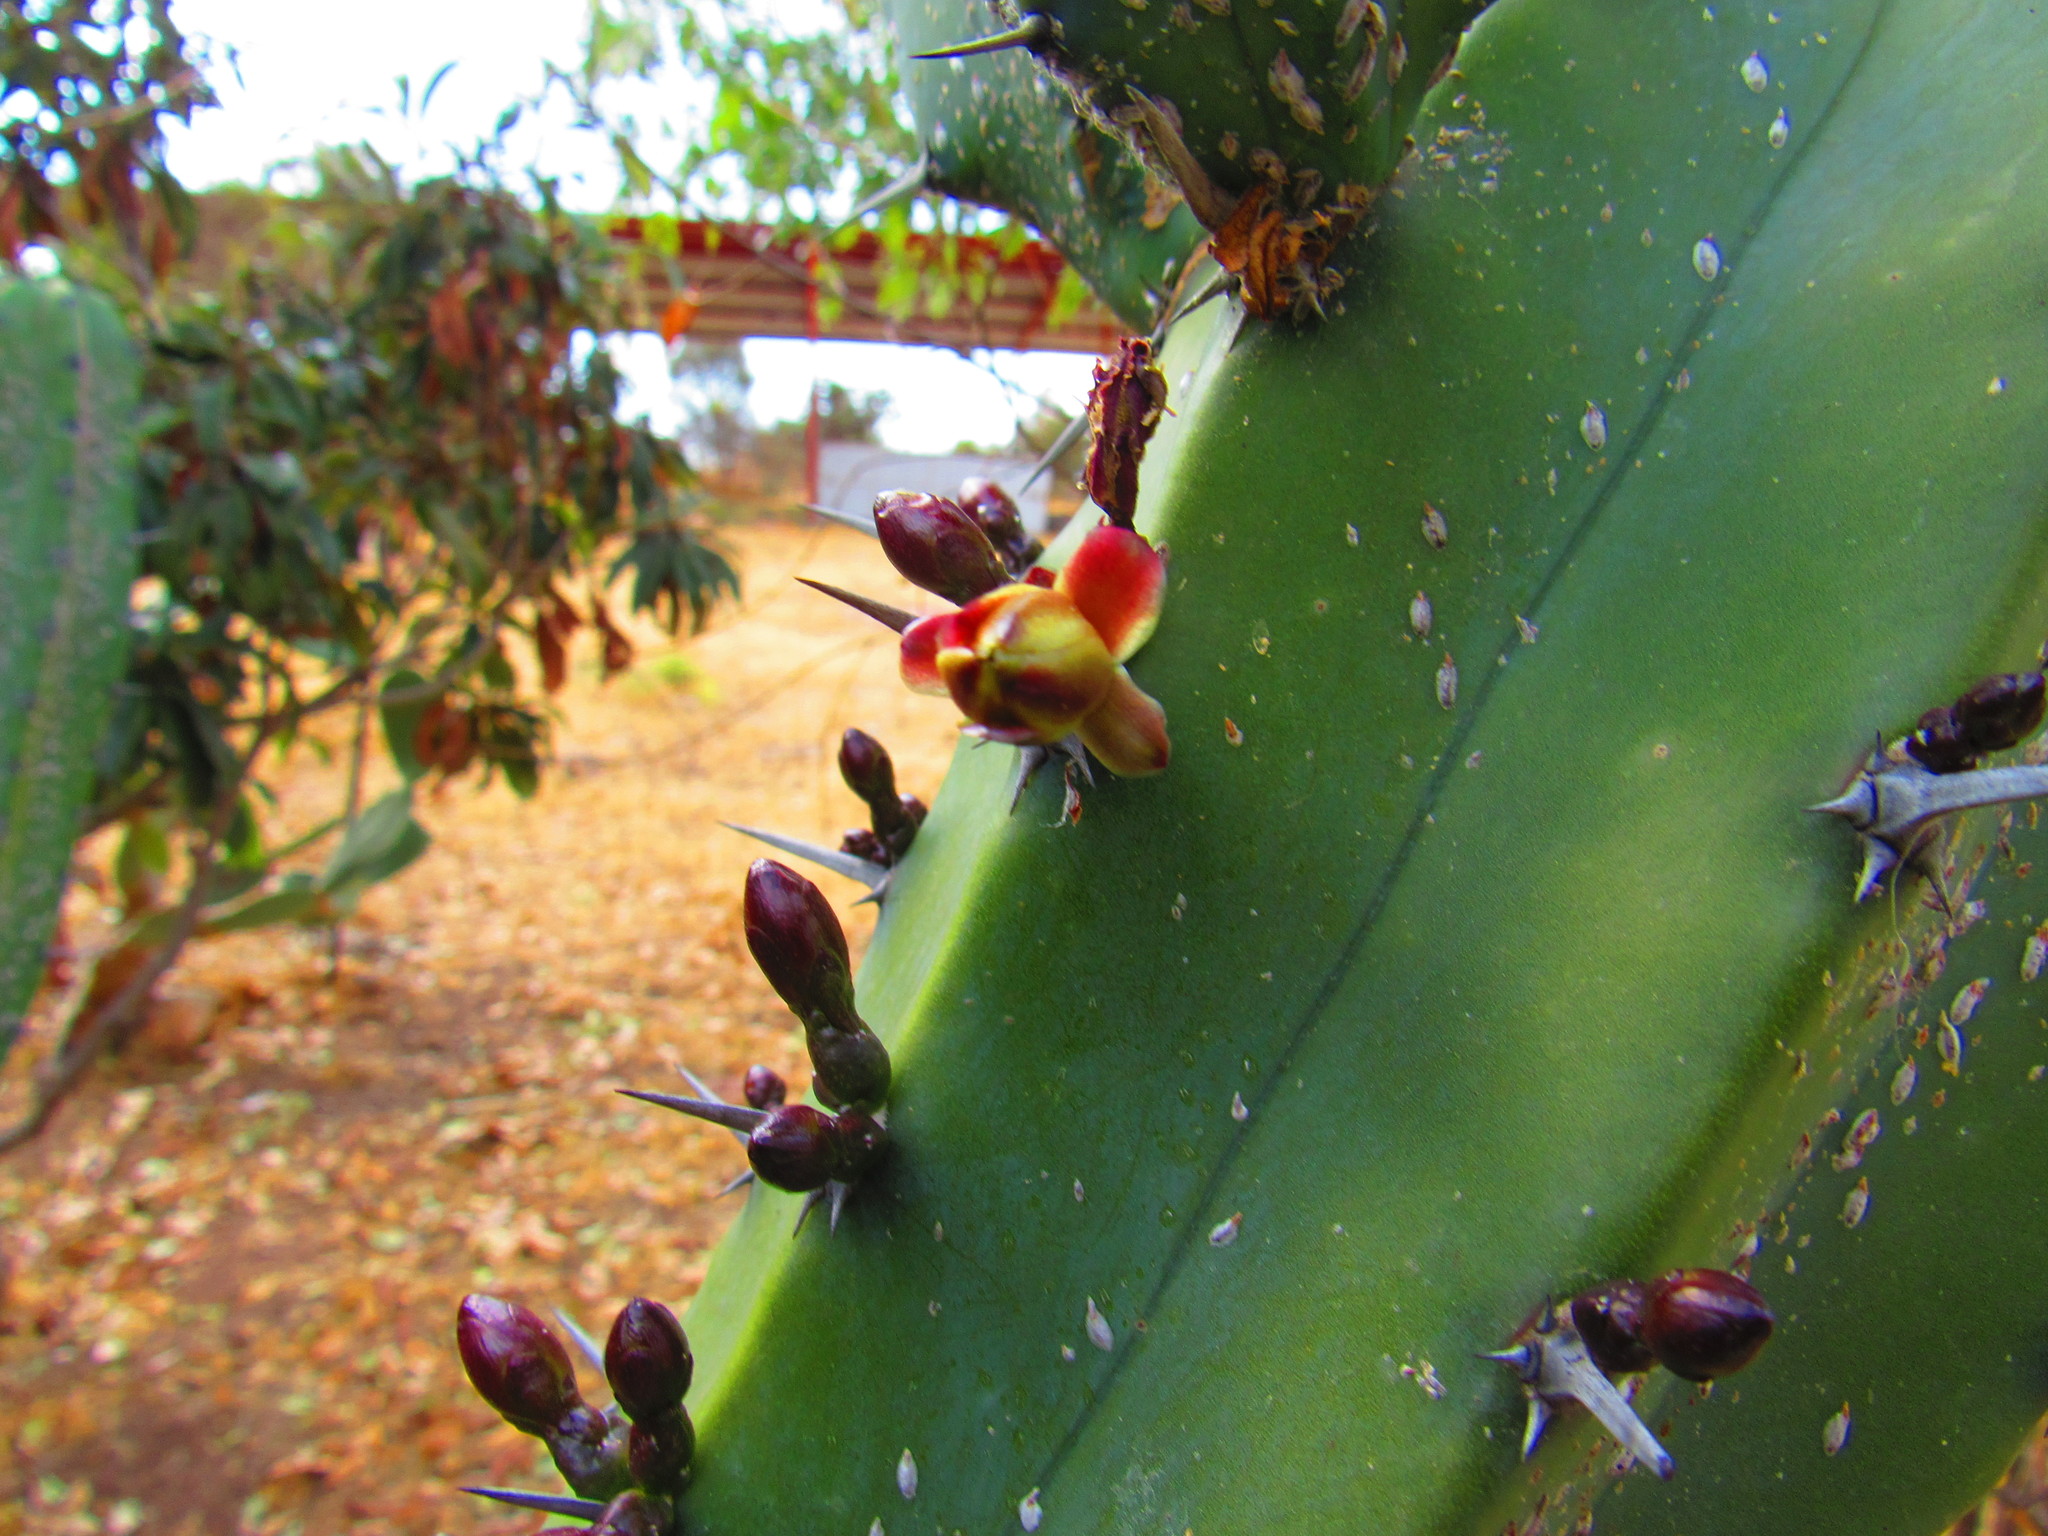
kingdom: Plantae
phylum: Tracheophyta
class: Magnoliopsida
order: Caryophyllales
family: Cactaceae
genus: Myrtillocactus
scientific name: Myrtillocactus geometrizans
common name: Bilberry cactus
